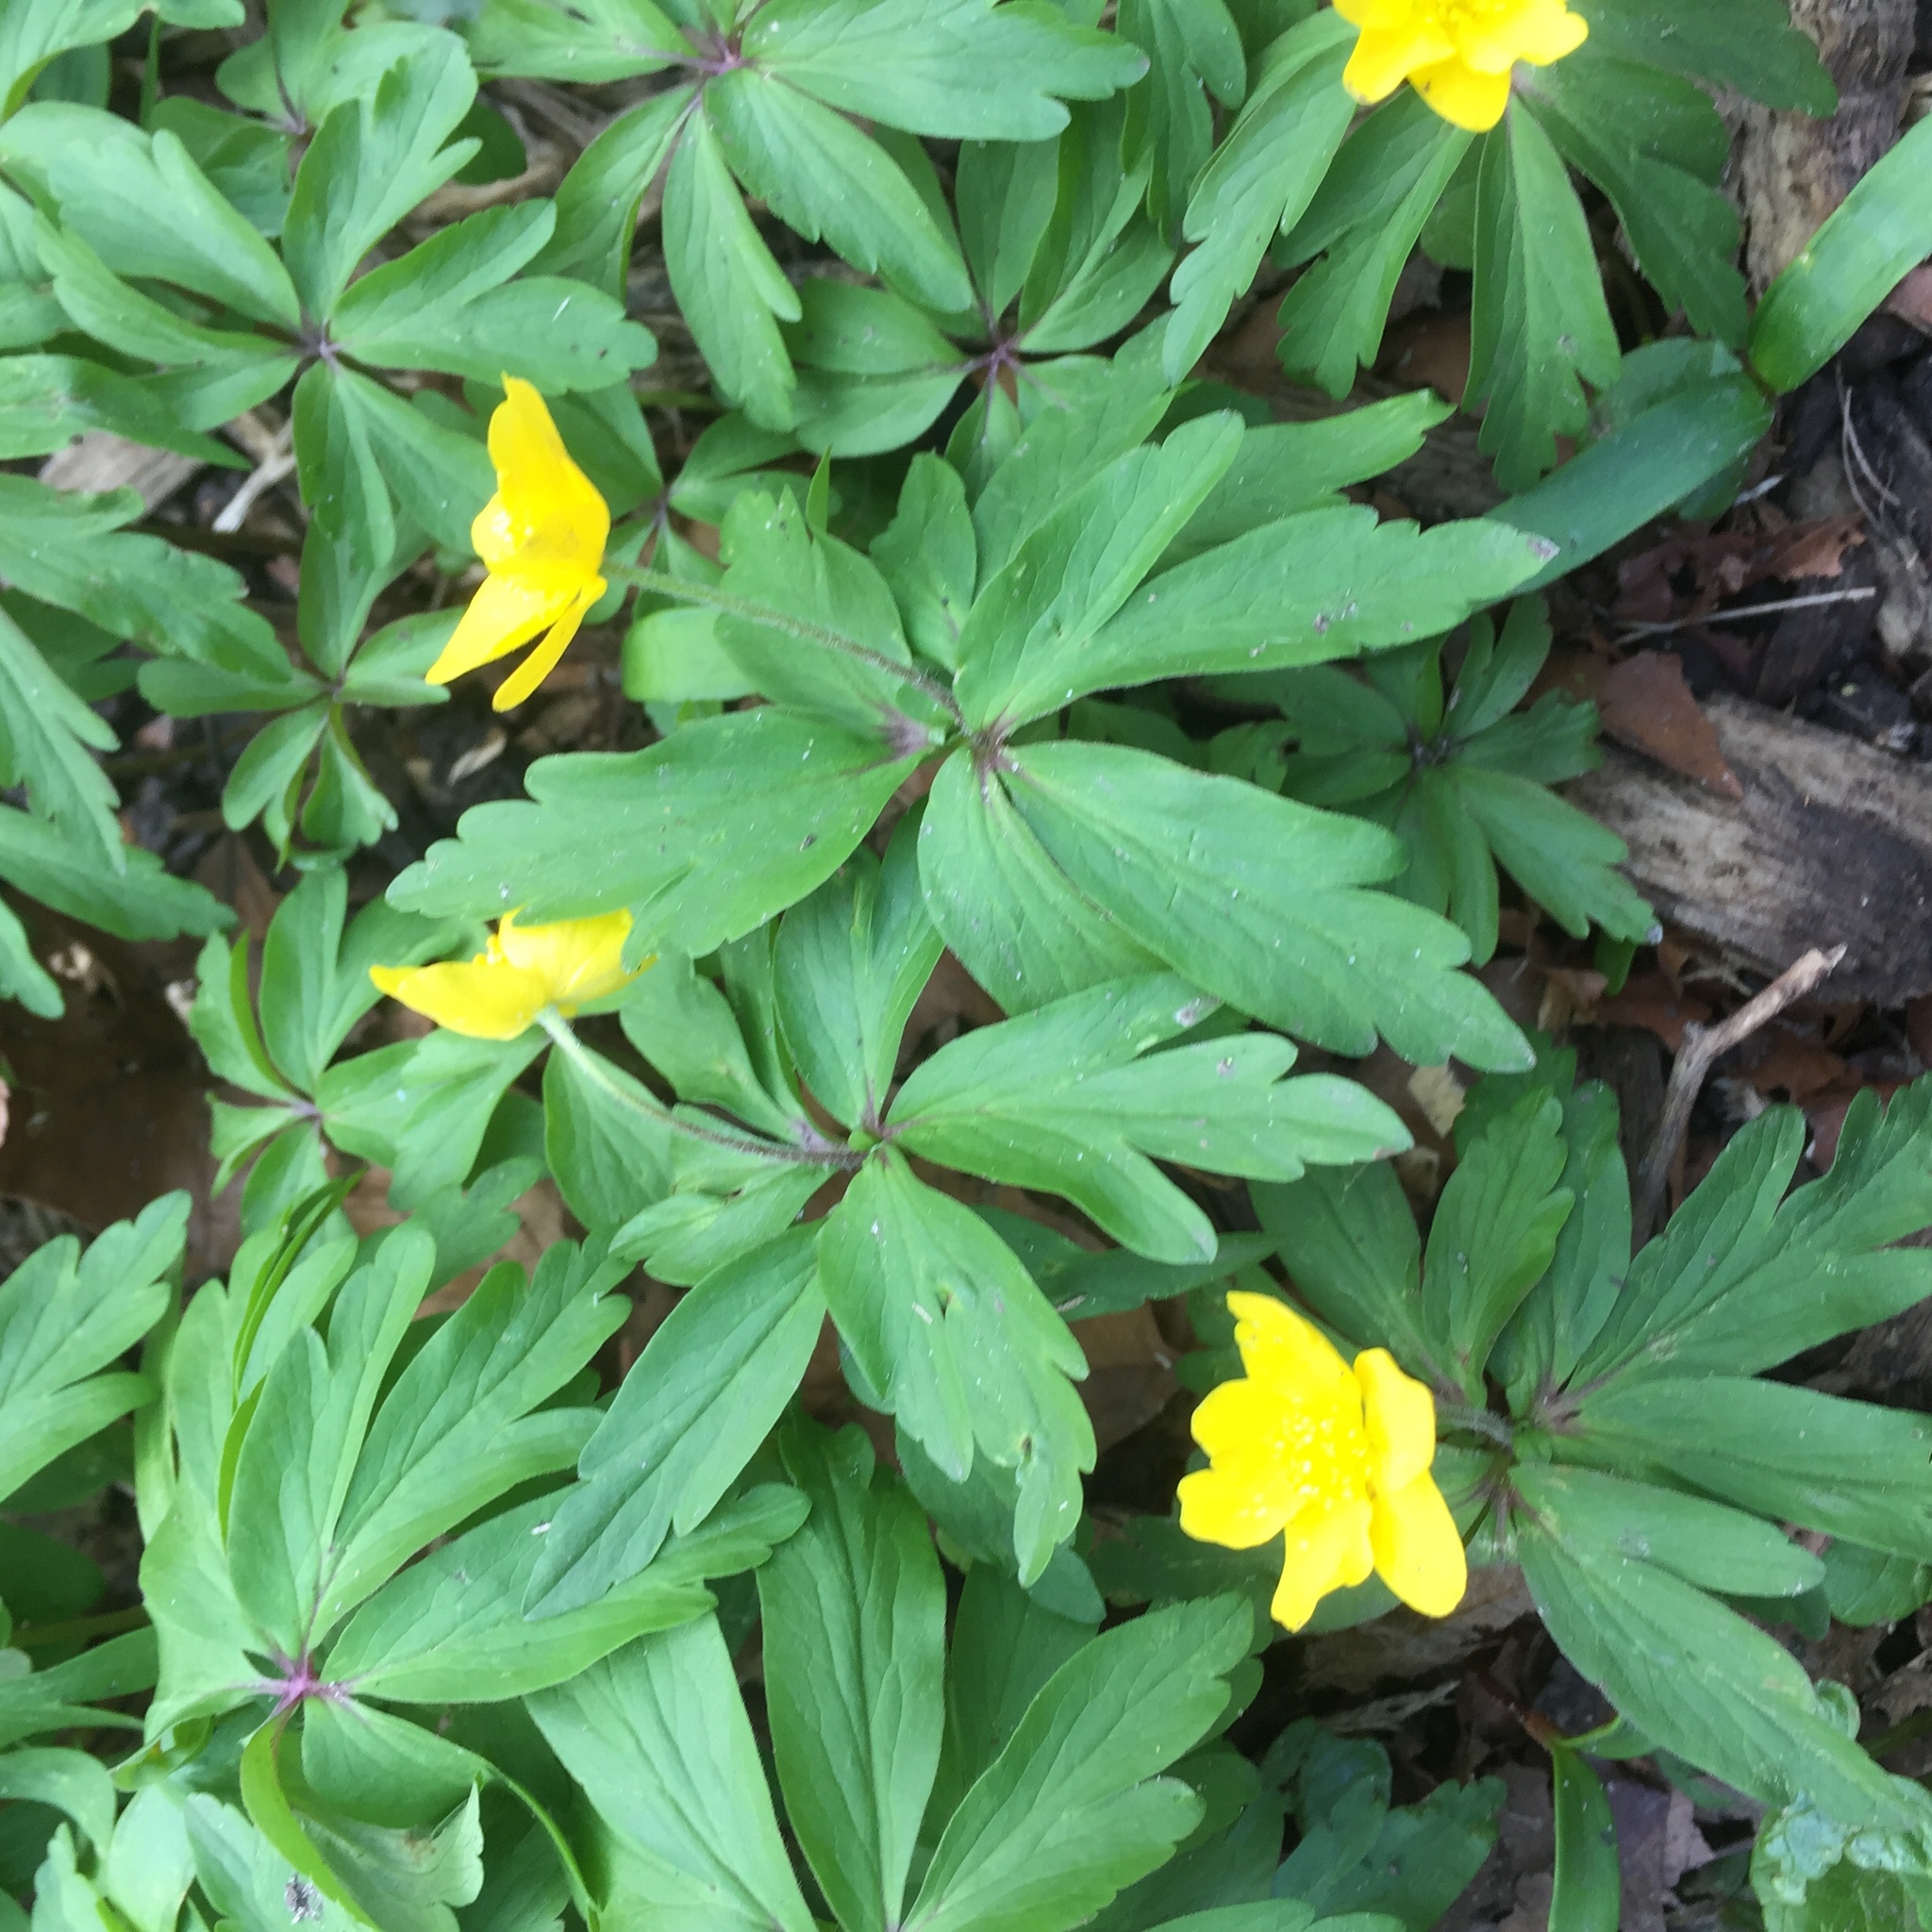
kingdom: Plantae
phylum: Tracheophyta
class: Magnoliopsida
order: Ranunculales
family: Ranunculaceae
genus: Anemone
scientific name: Anemone ranunculoides
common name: Yellow anemone
